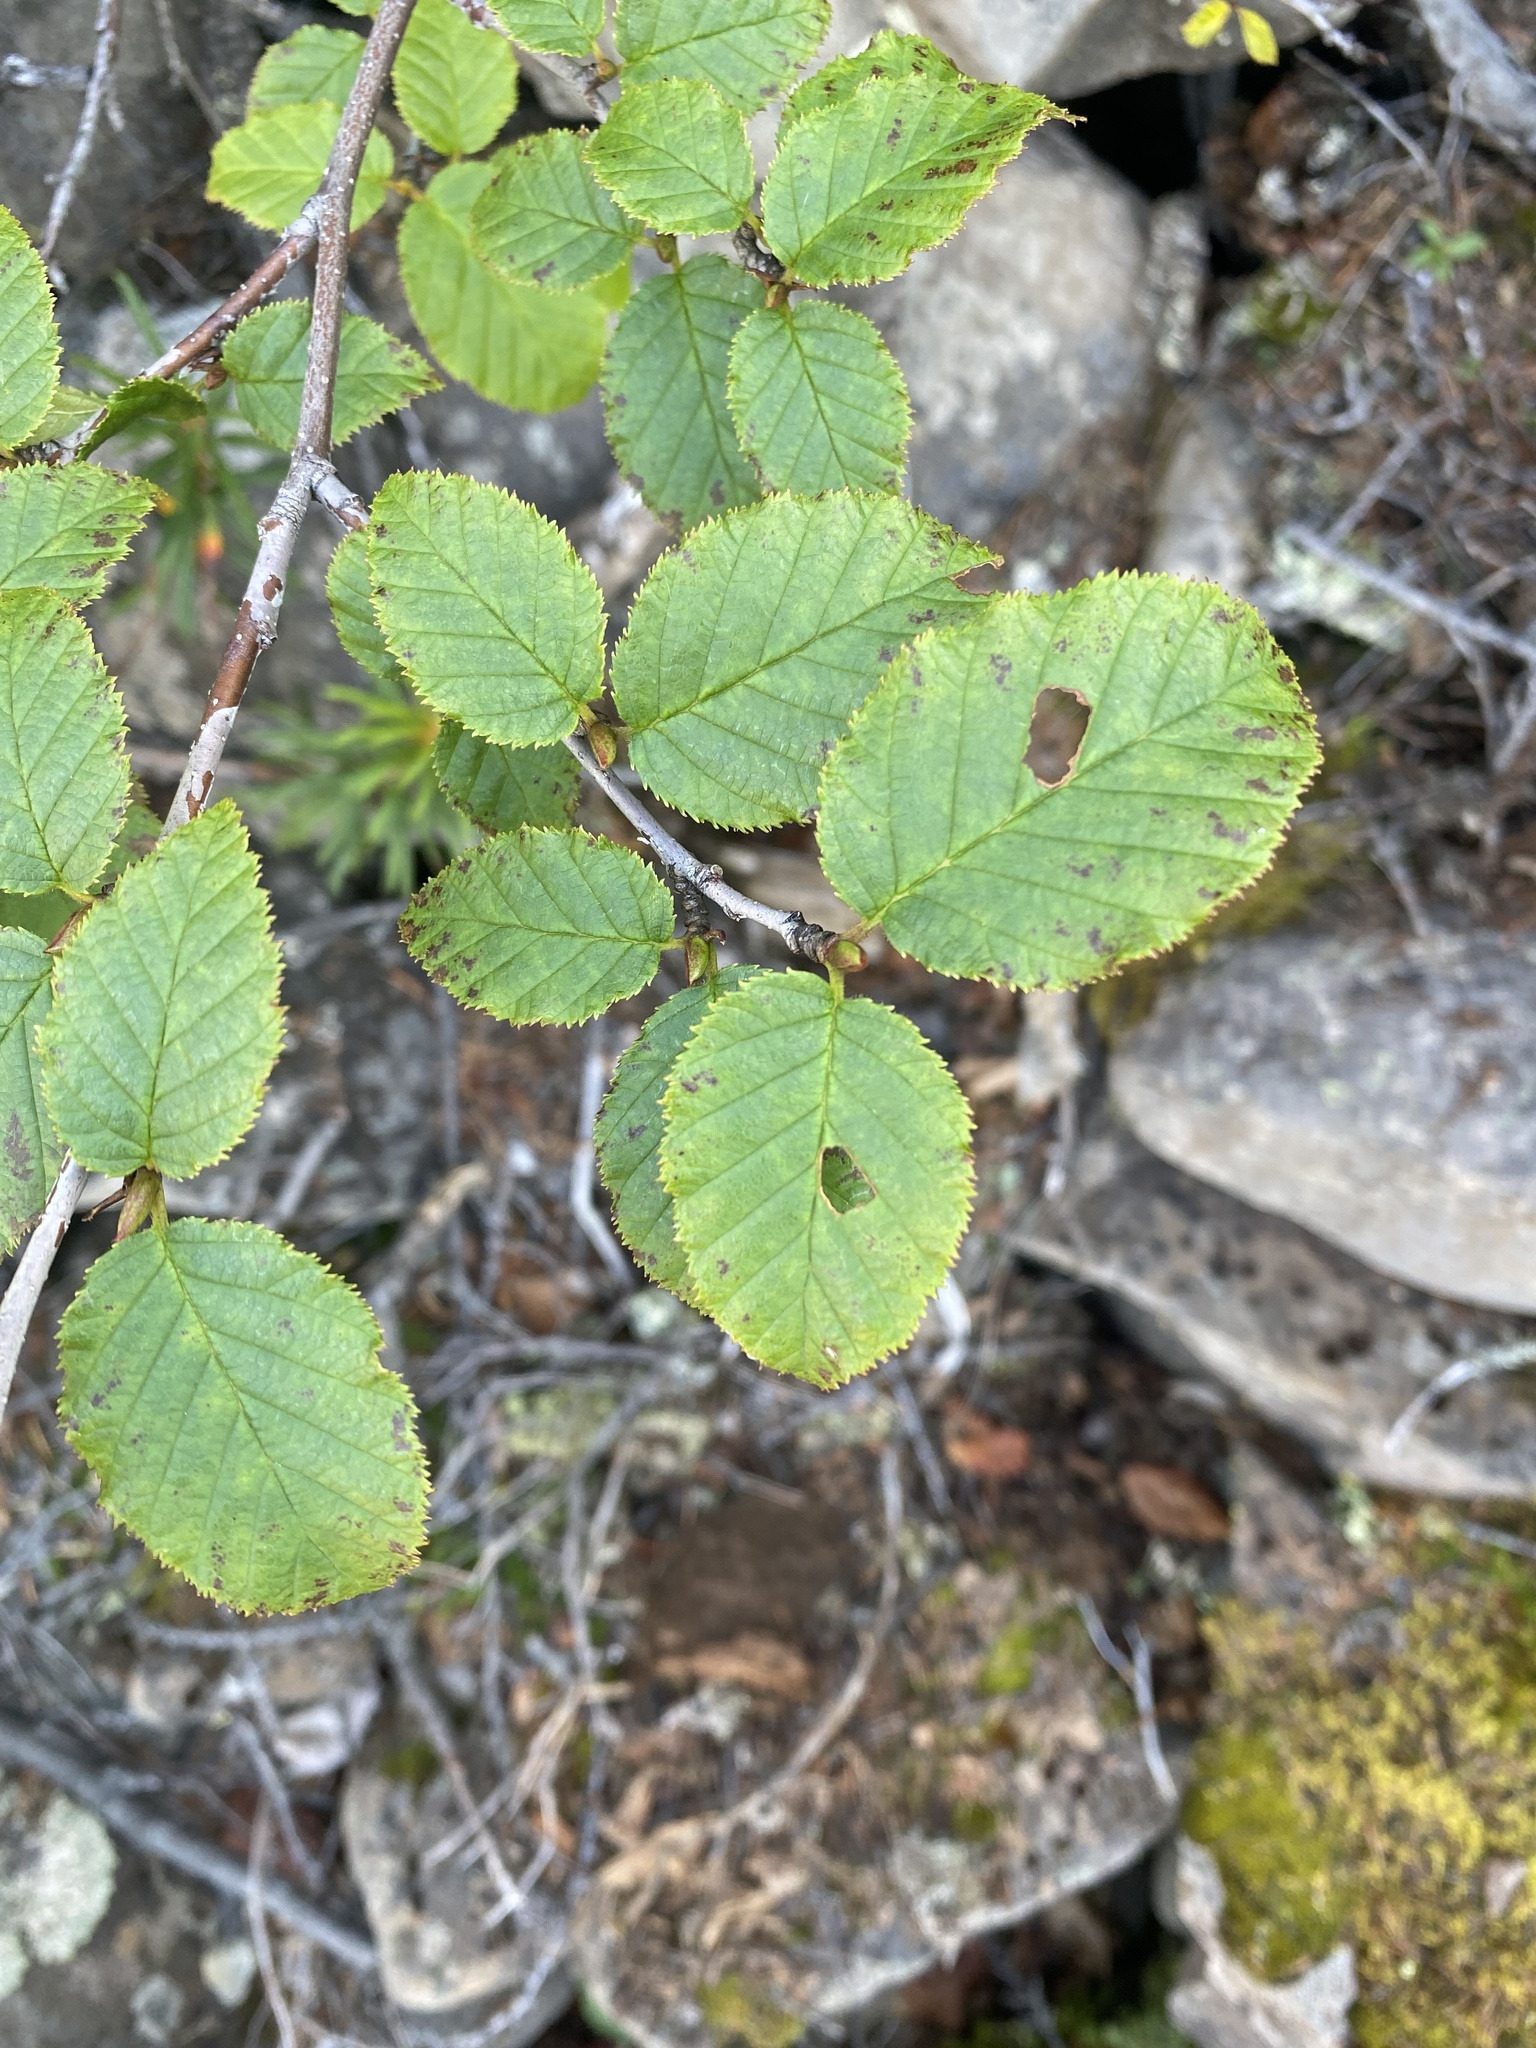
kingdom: Plantae
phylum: Tracheophyta
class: Magnoliopsida
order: Fagales
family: Betulaceae
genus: Alnus
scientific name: Alnus alnobetula
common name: Green alder
